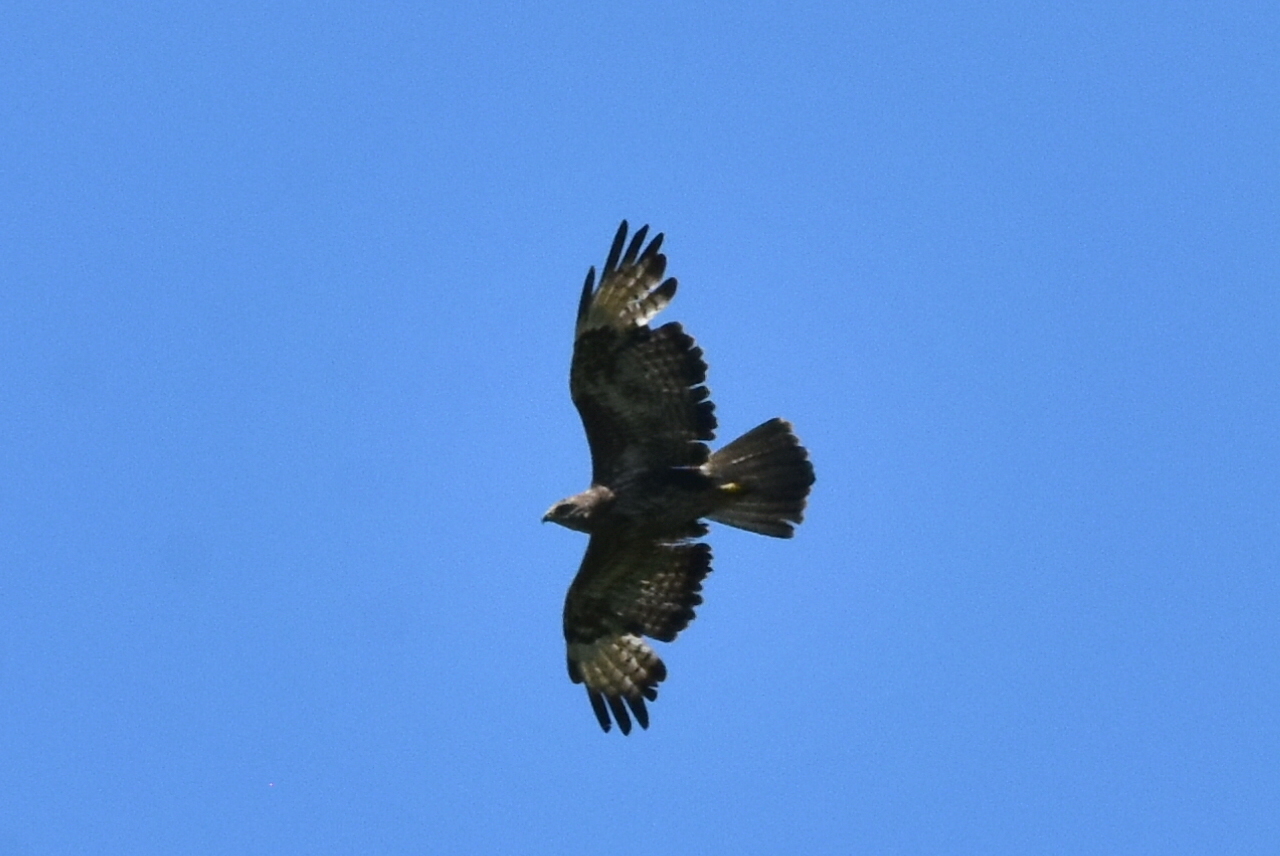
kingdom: Animalia
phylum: Chordata
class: Aves
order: Accipitriformes
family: Accipitridae
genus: Buteo
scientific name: Buteo buteo
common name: Common buzzard
